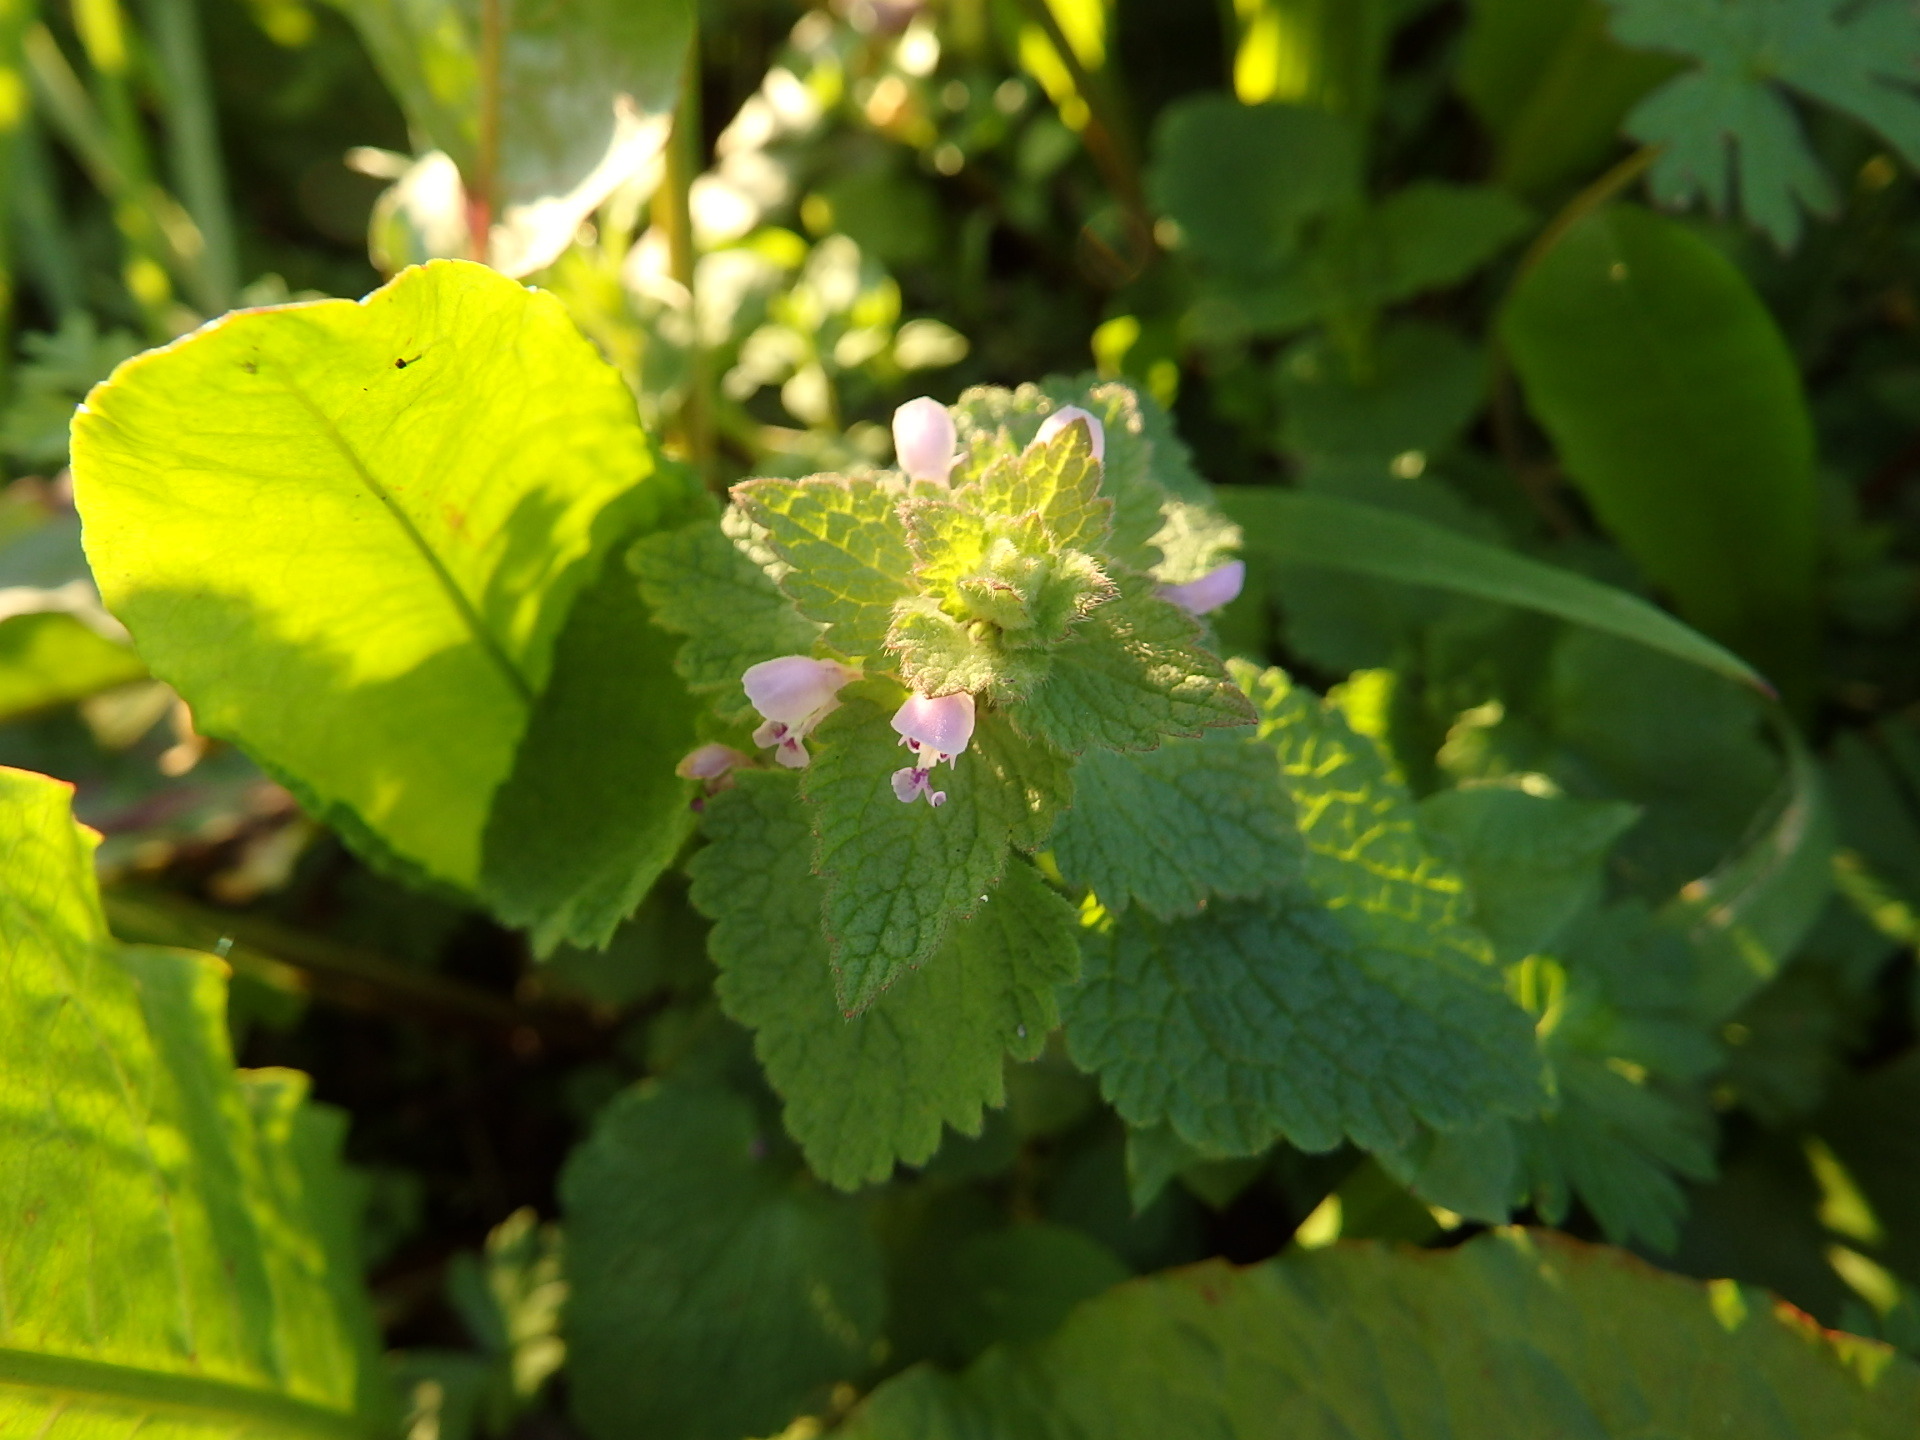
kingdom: Plantae
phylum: Tracheophyta
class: Magnoliopsida
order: Lamiales
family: Lamiaceae
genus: Lamium
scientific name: Lamium purpureum
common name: Red dead-nettle
